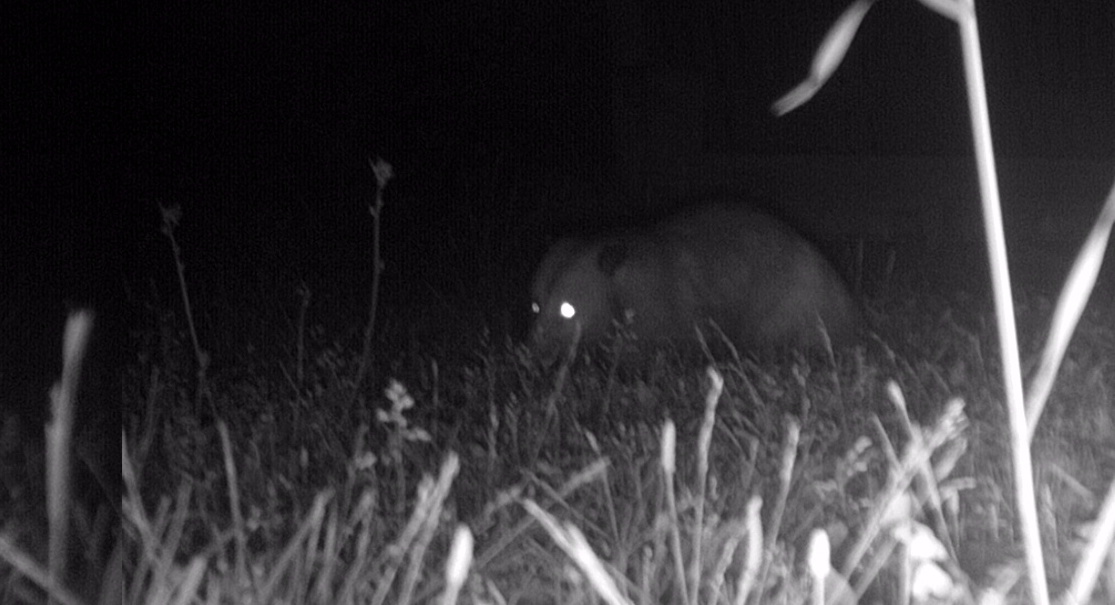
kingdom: Animalia
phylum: Chordata
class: Mammalia
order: Didelphimorphia
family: Didelphidae
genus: Didelphis
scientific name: Didelphis virginiana
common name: Virginia opossum
